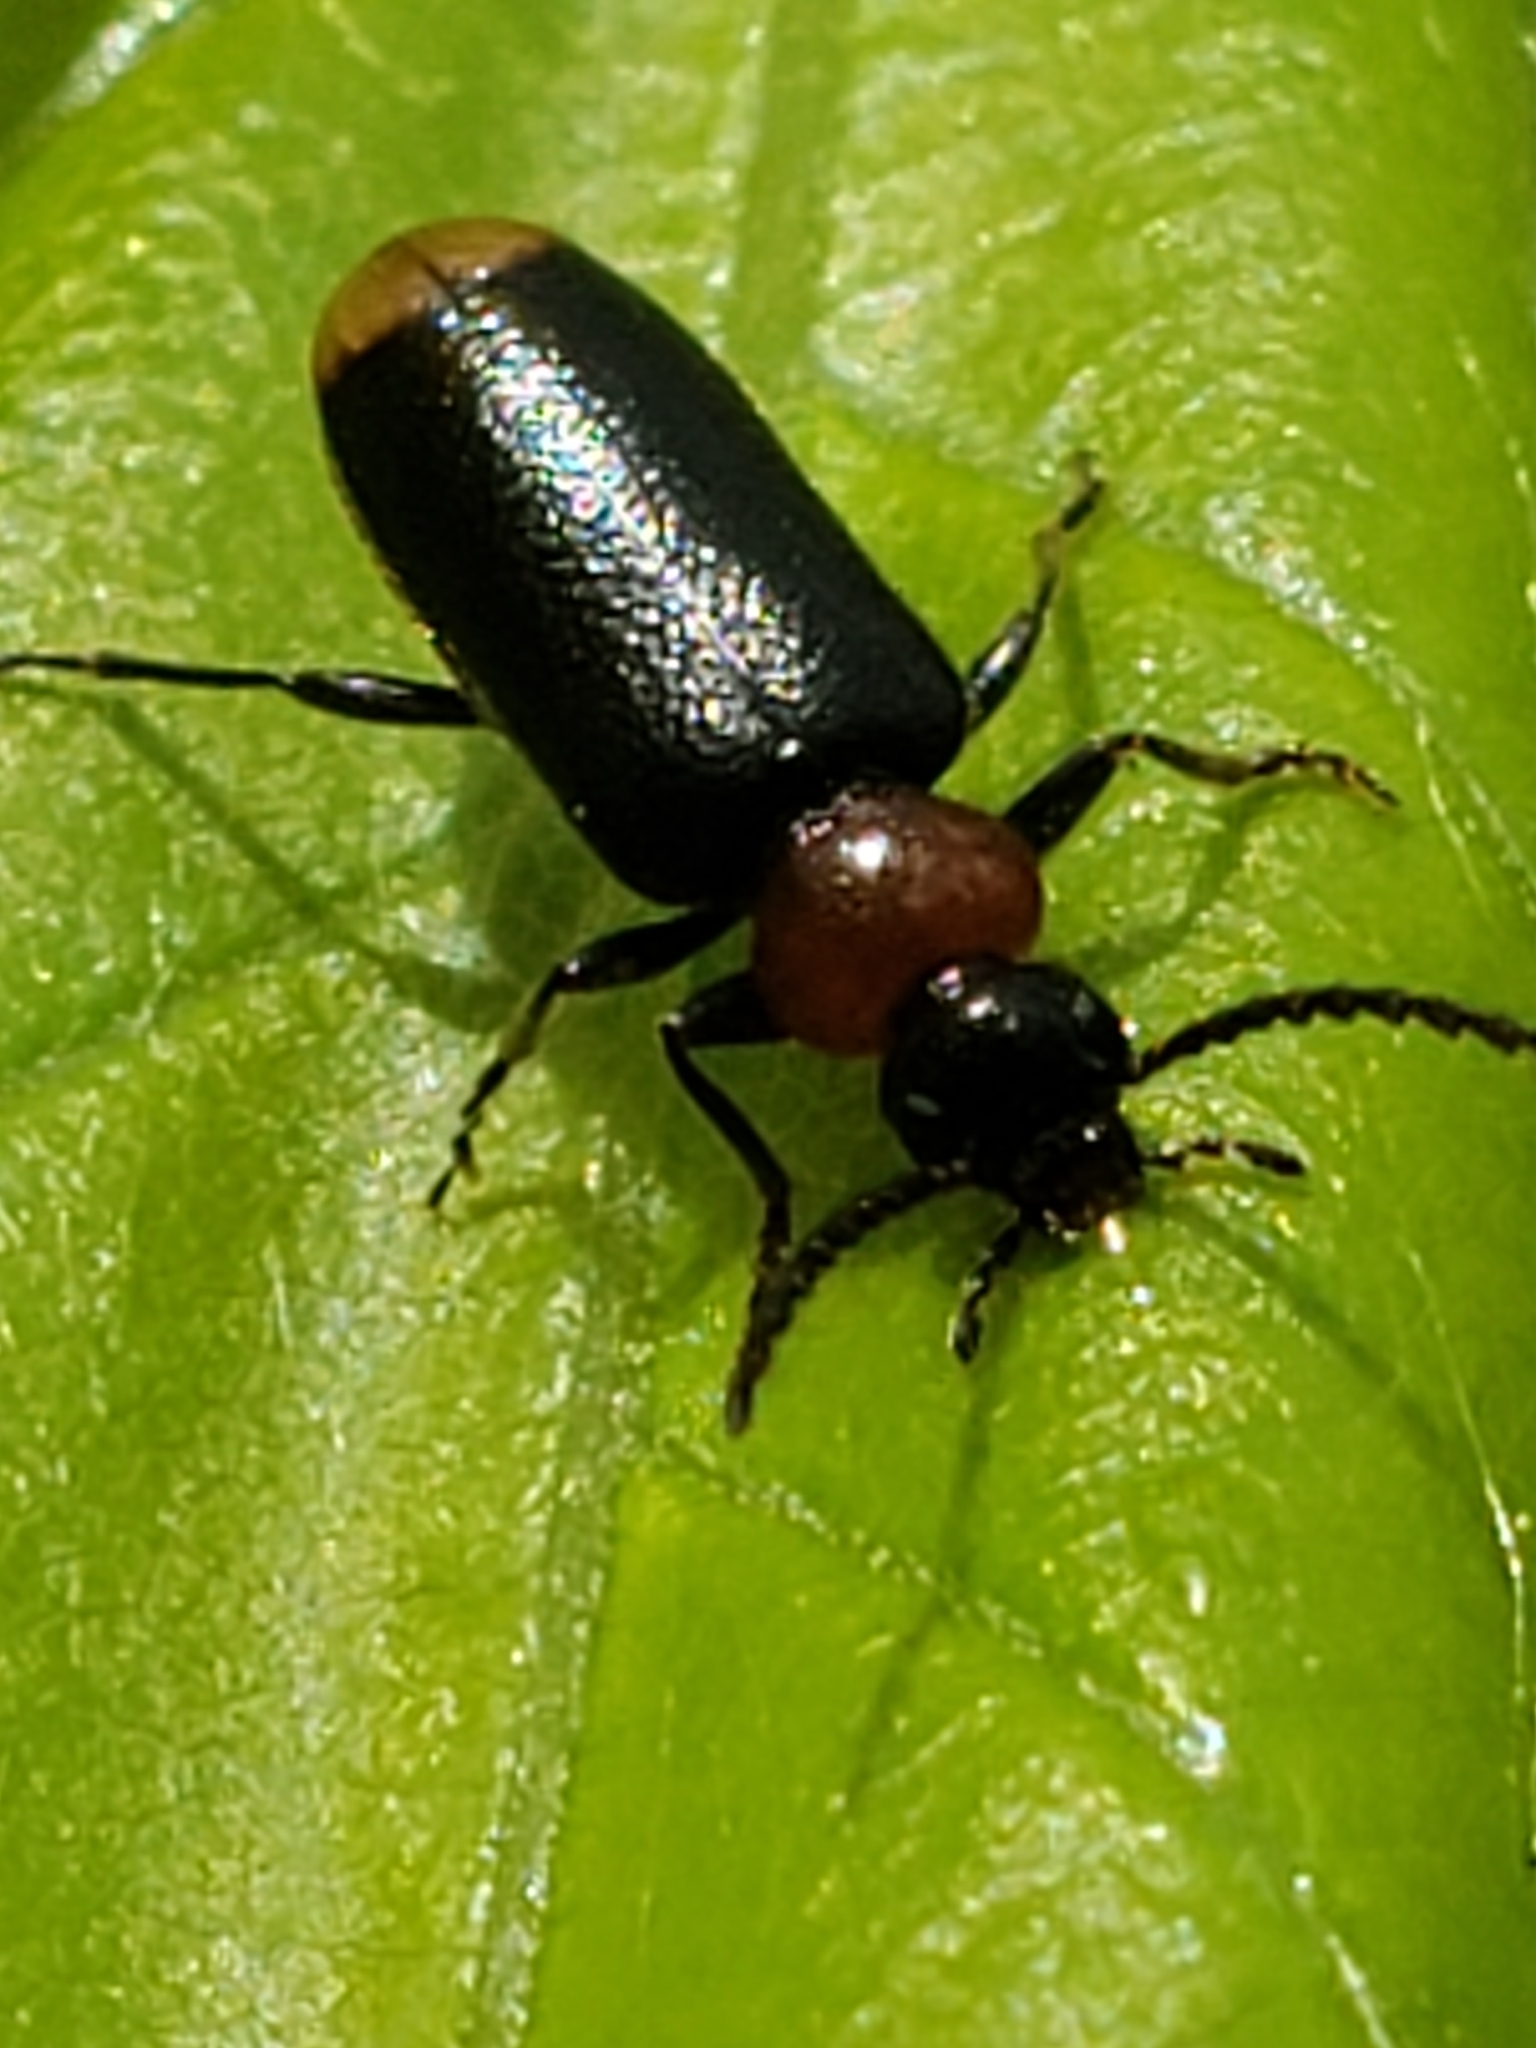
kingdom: Animalia
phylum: Arthropoda
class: Insecta
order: Coleoptera
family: Pyrochroidae
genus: Pedilus
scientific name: Pedilus terminalis
